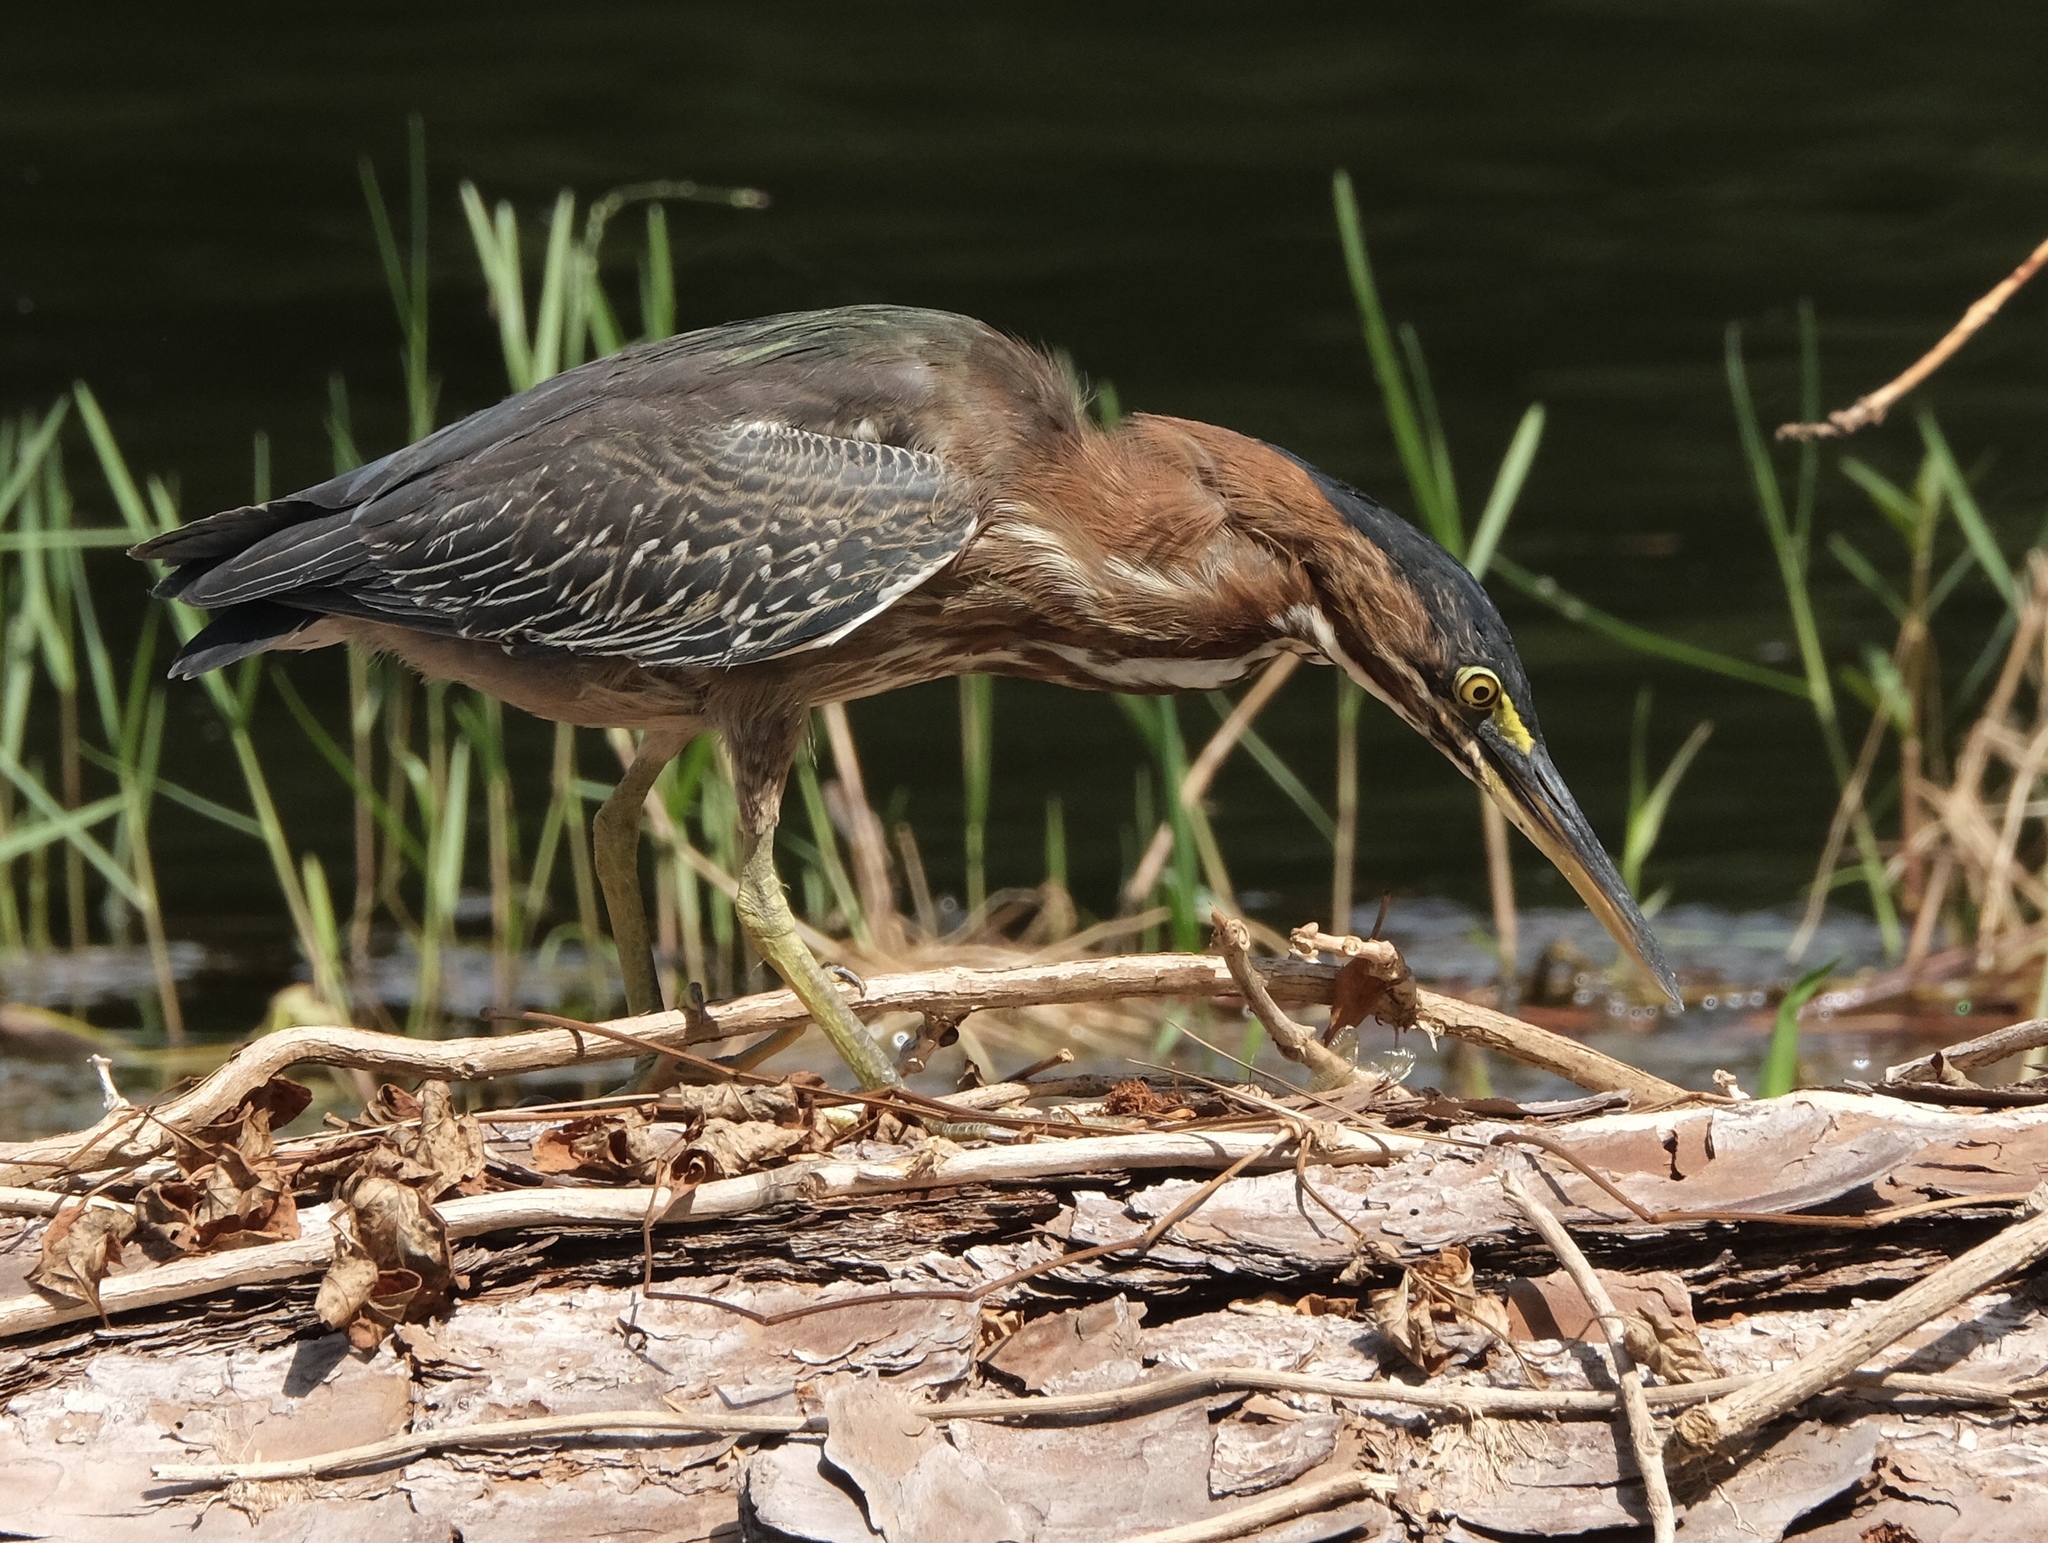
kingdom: Animalia
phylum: Chordata
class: Aves
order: Pelecaniformes
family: Ardeidae
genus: Butorides
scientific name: Butorides virescens
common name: Green heron
